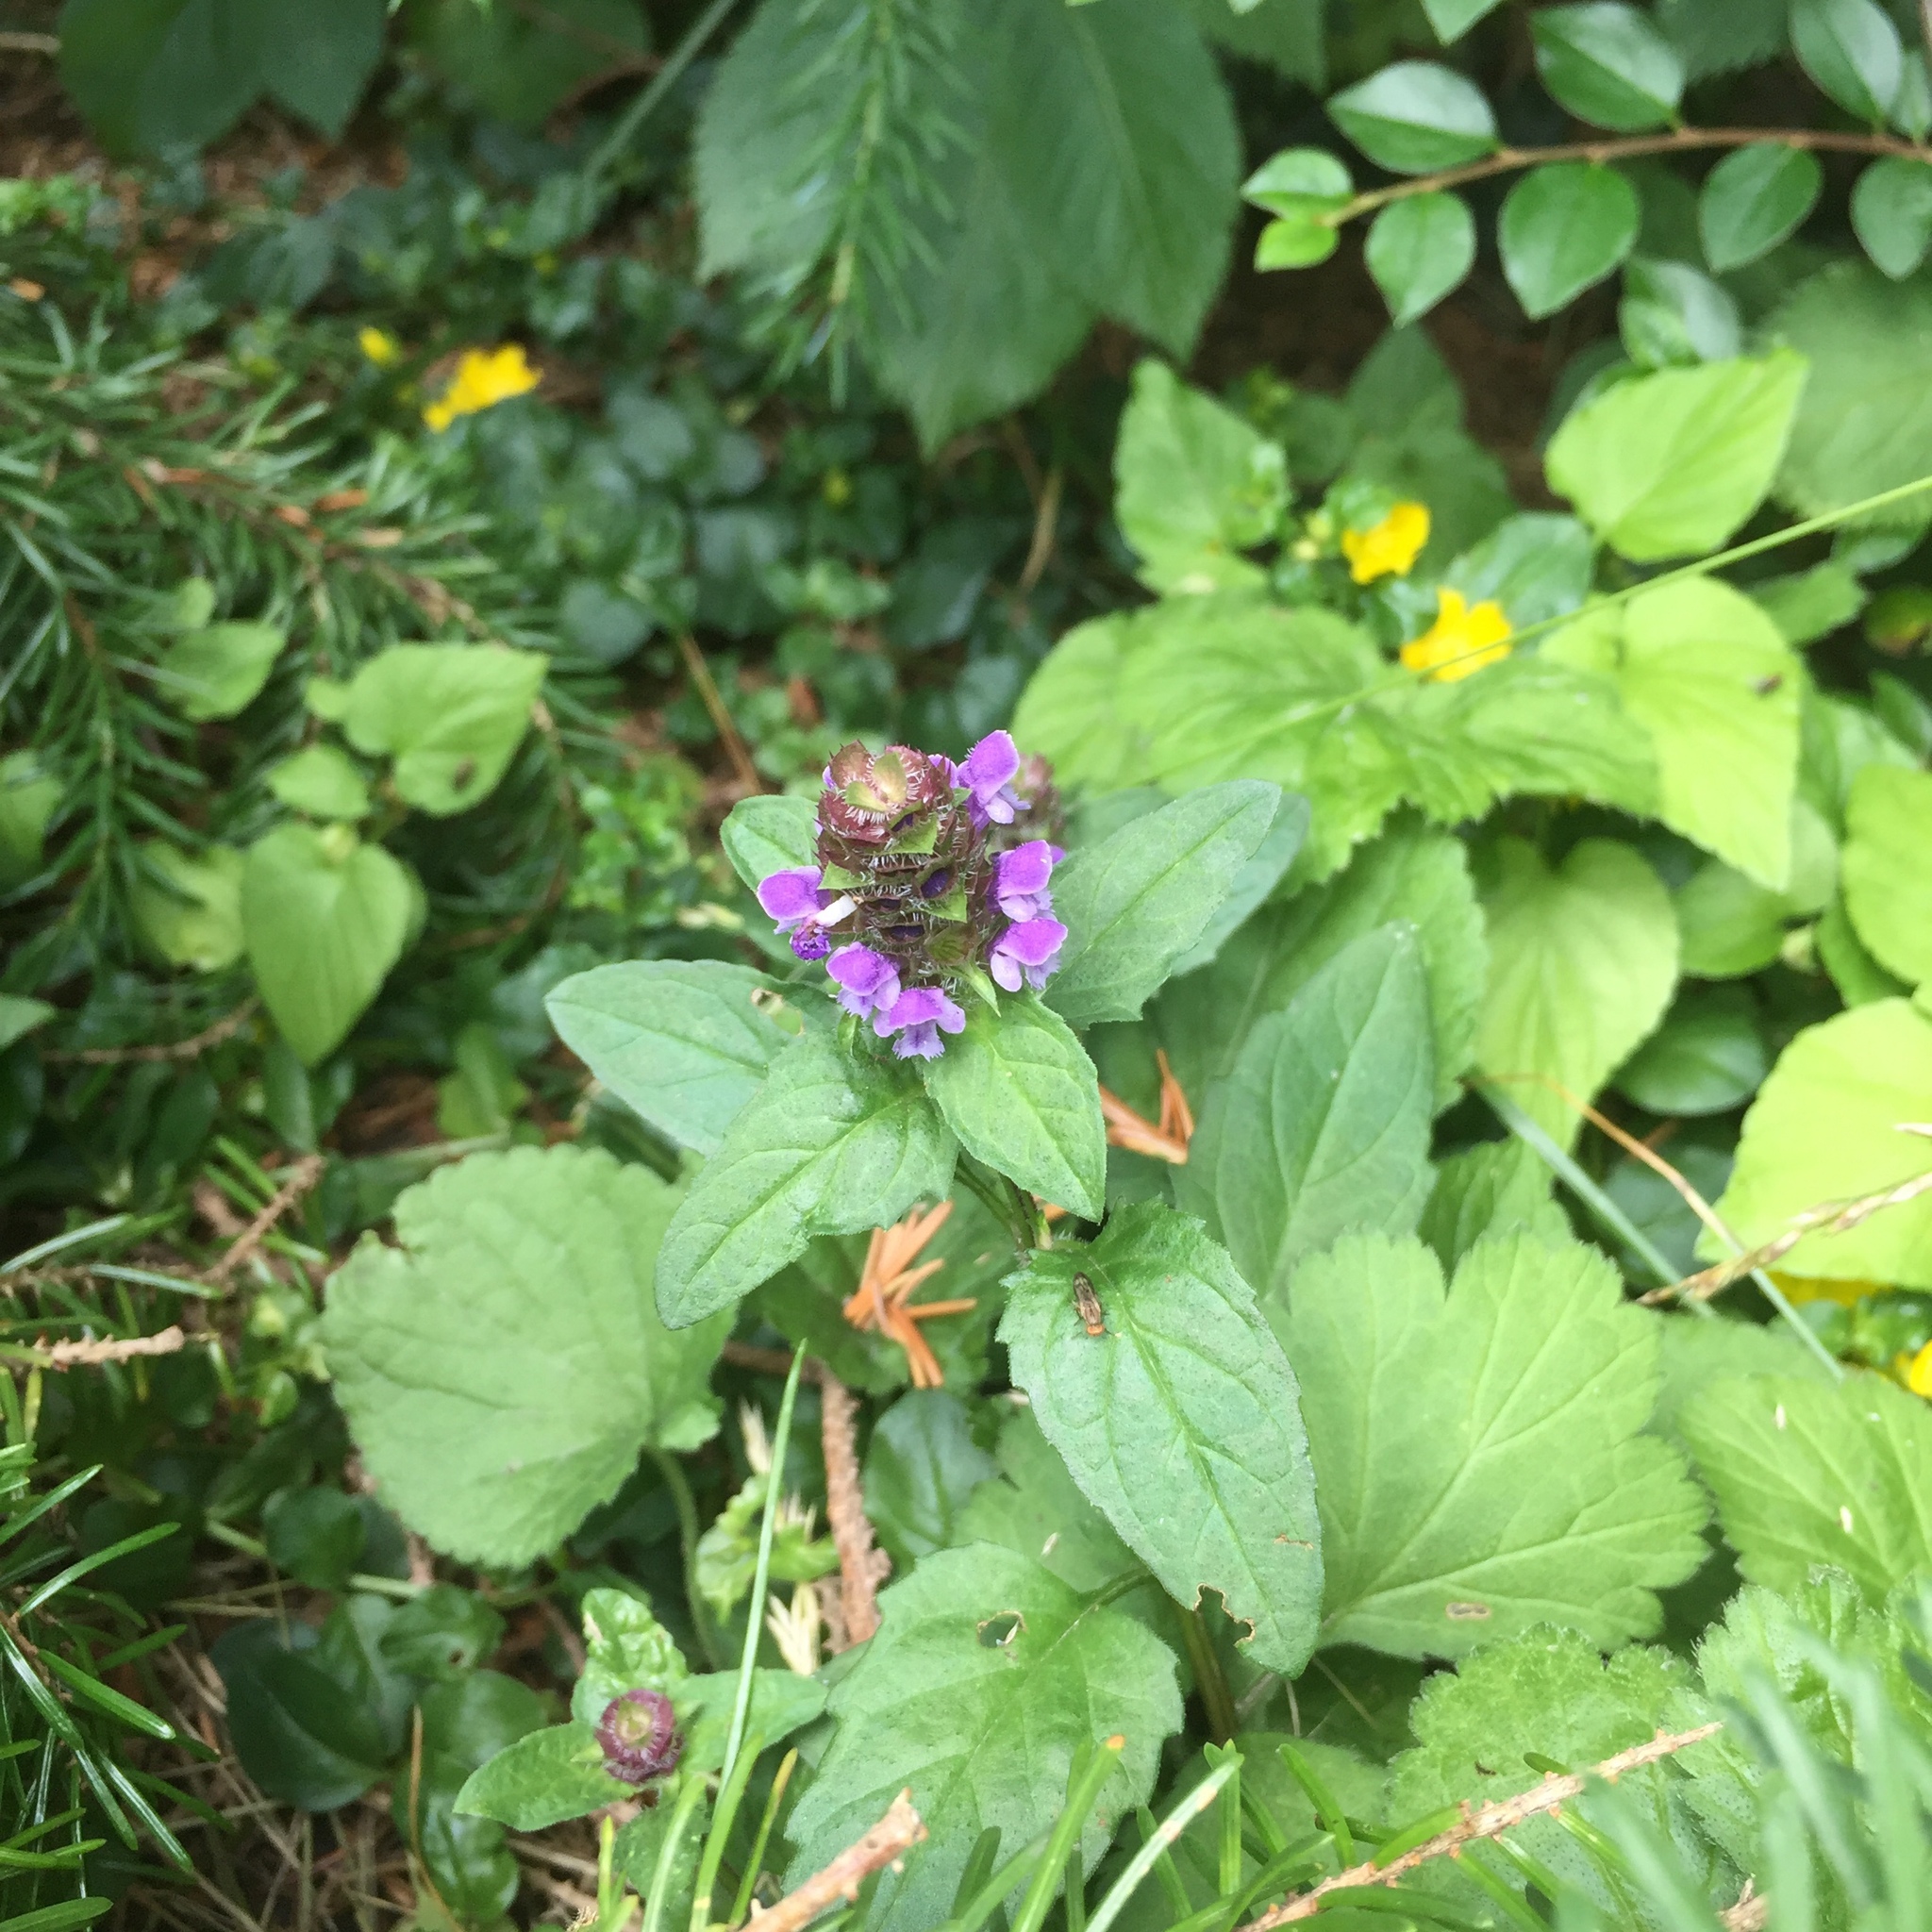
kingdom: Plantae
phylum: Tracheophyta
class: Magnoliopsida
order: Lamiales
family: Lamiaceae
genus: Prunella
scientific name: Prunella vulgaris
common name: Heal-all
